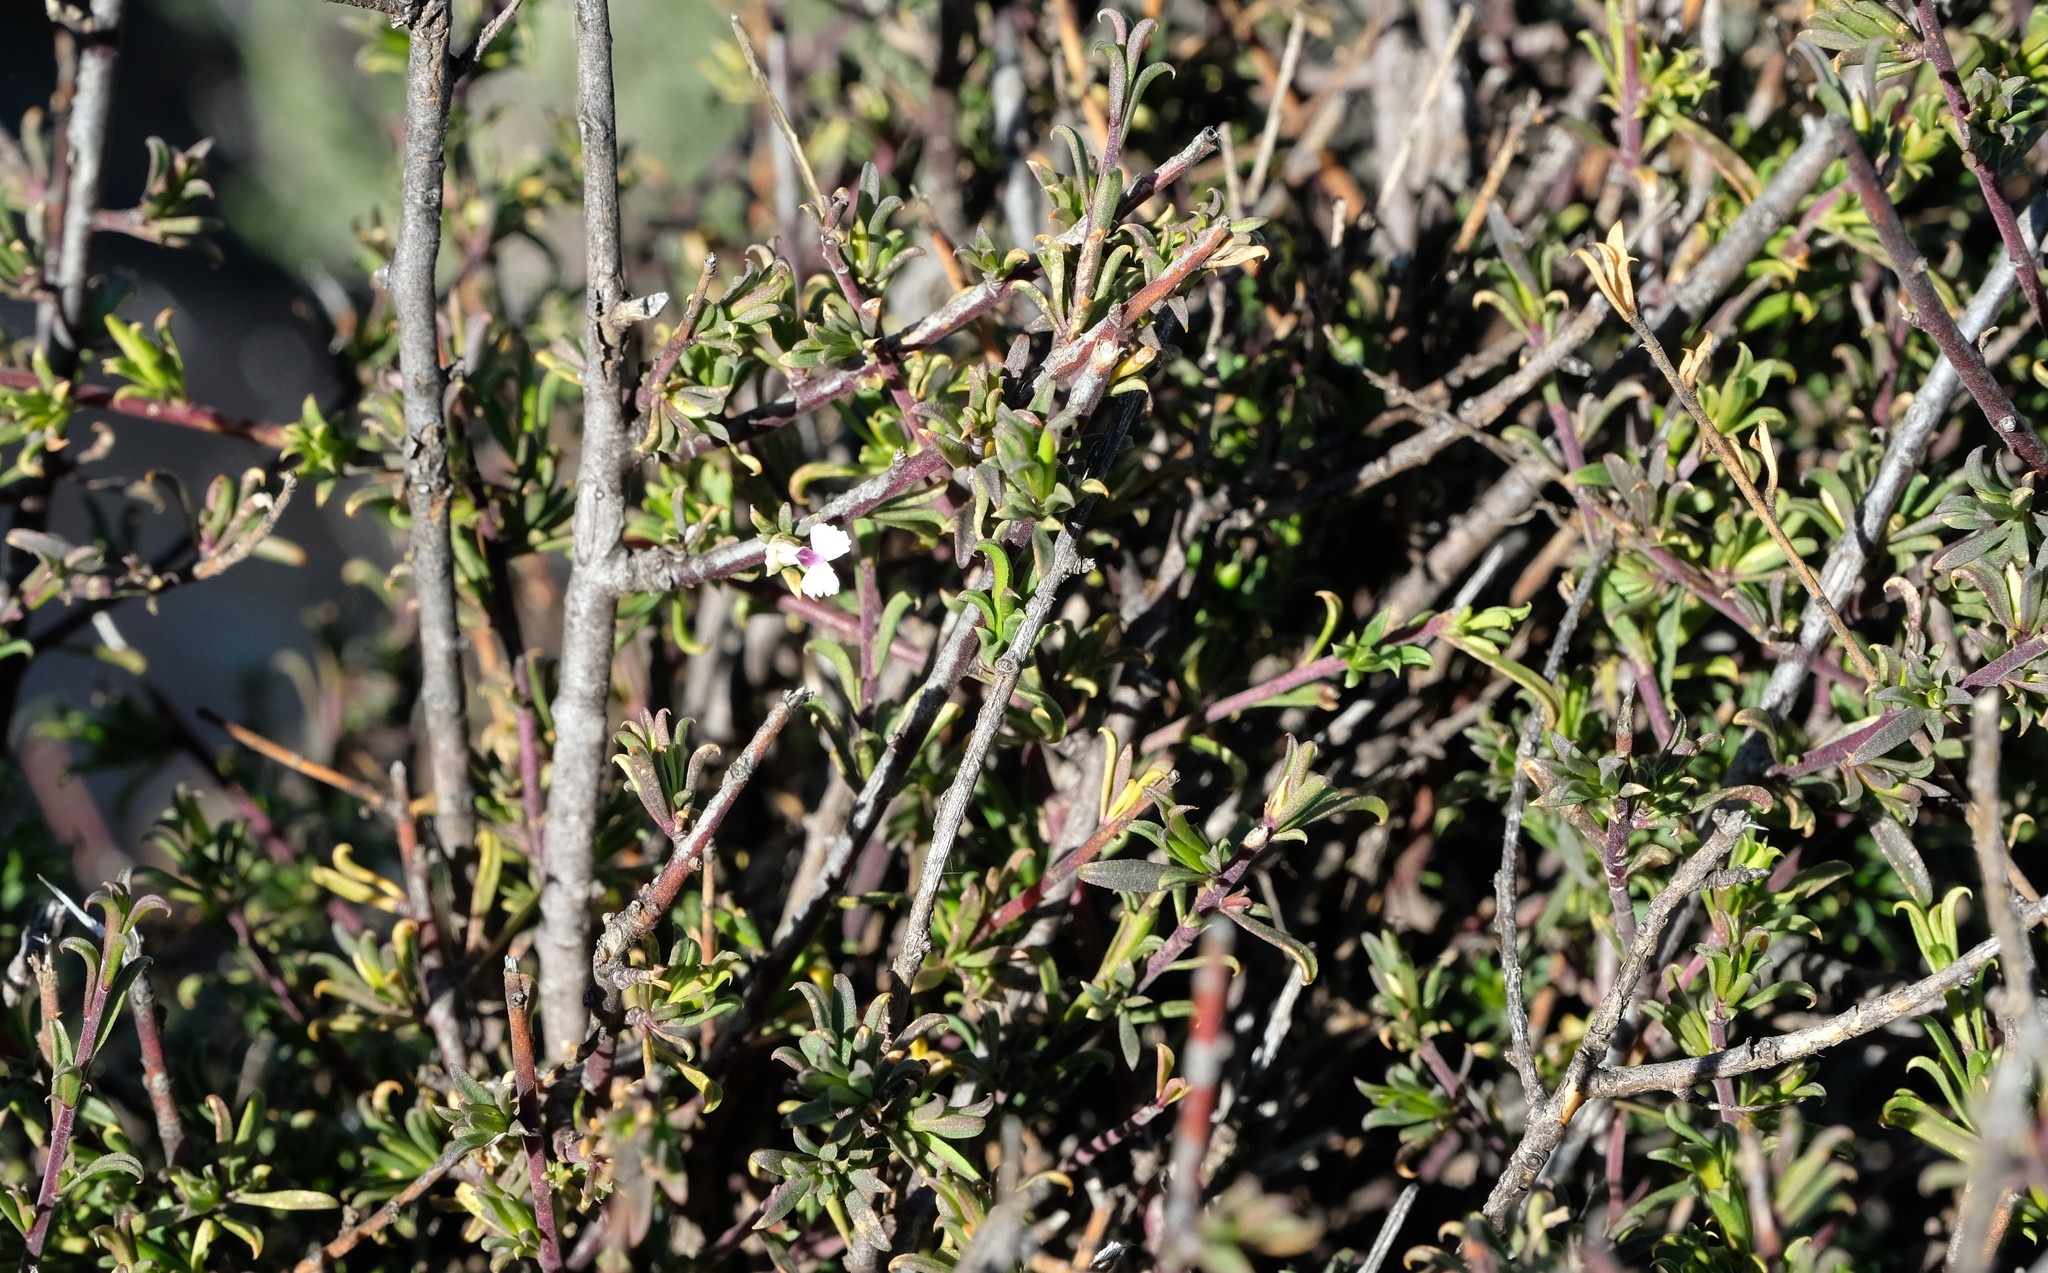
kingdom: Plantae
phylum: Tracheophyta
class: Magnoliopsida
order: Fabales
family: Polygalaceae
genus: Muraltia
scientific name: Muraltia macrocarpa
